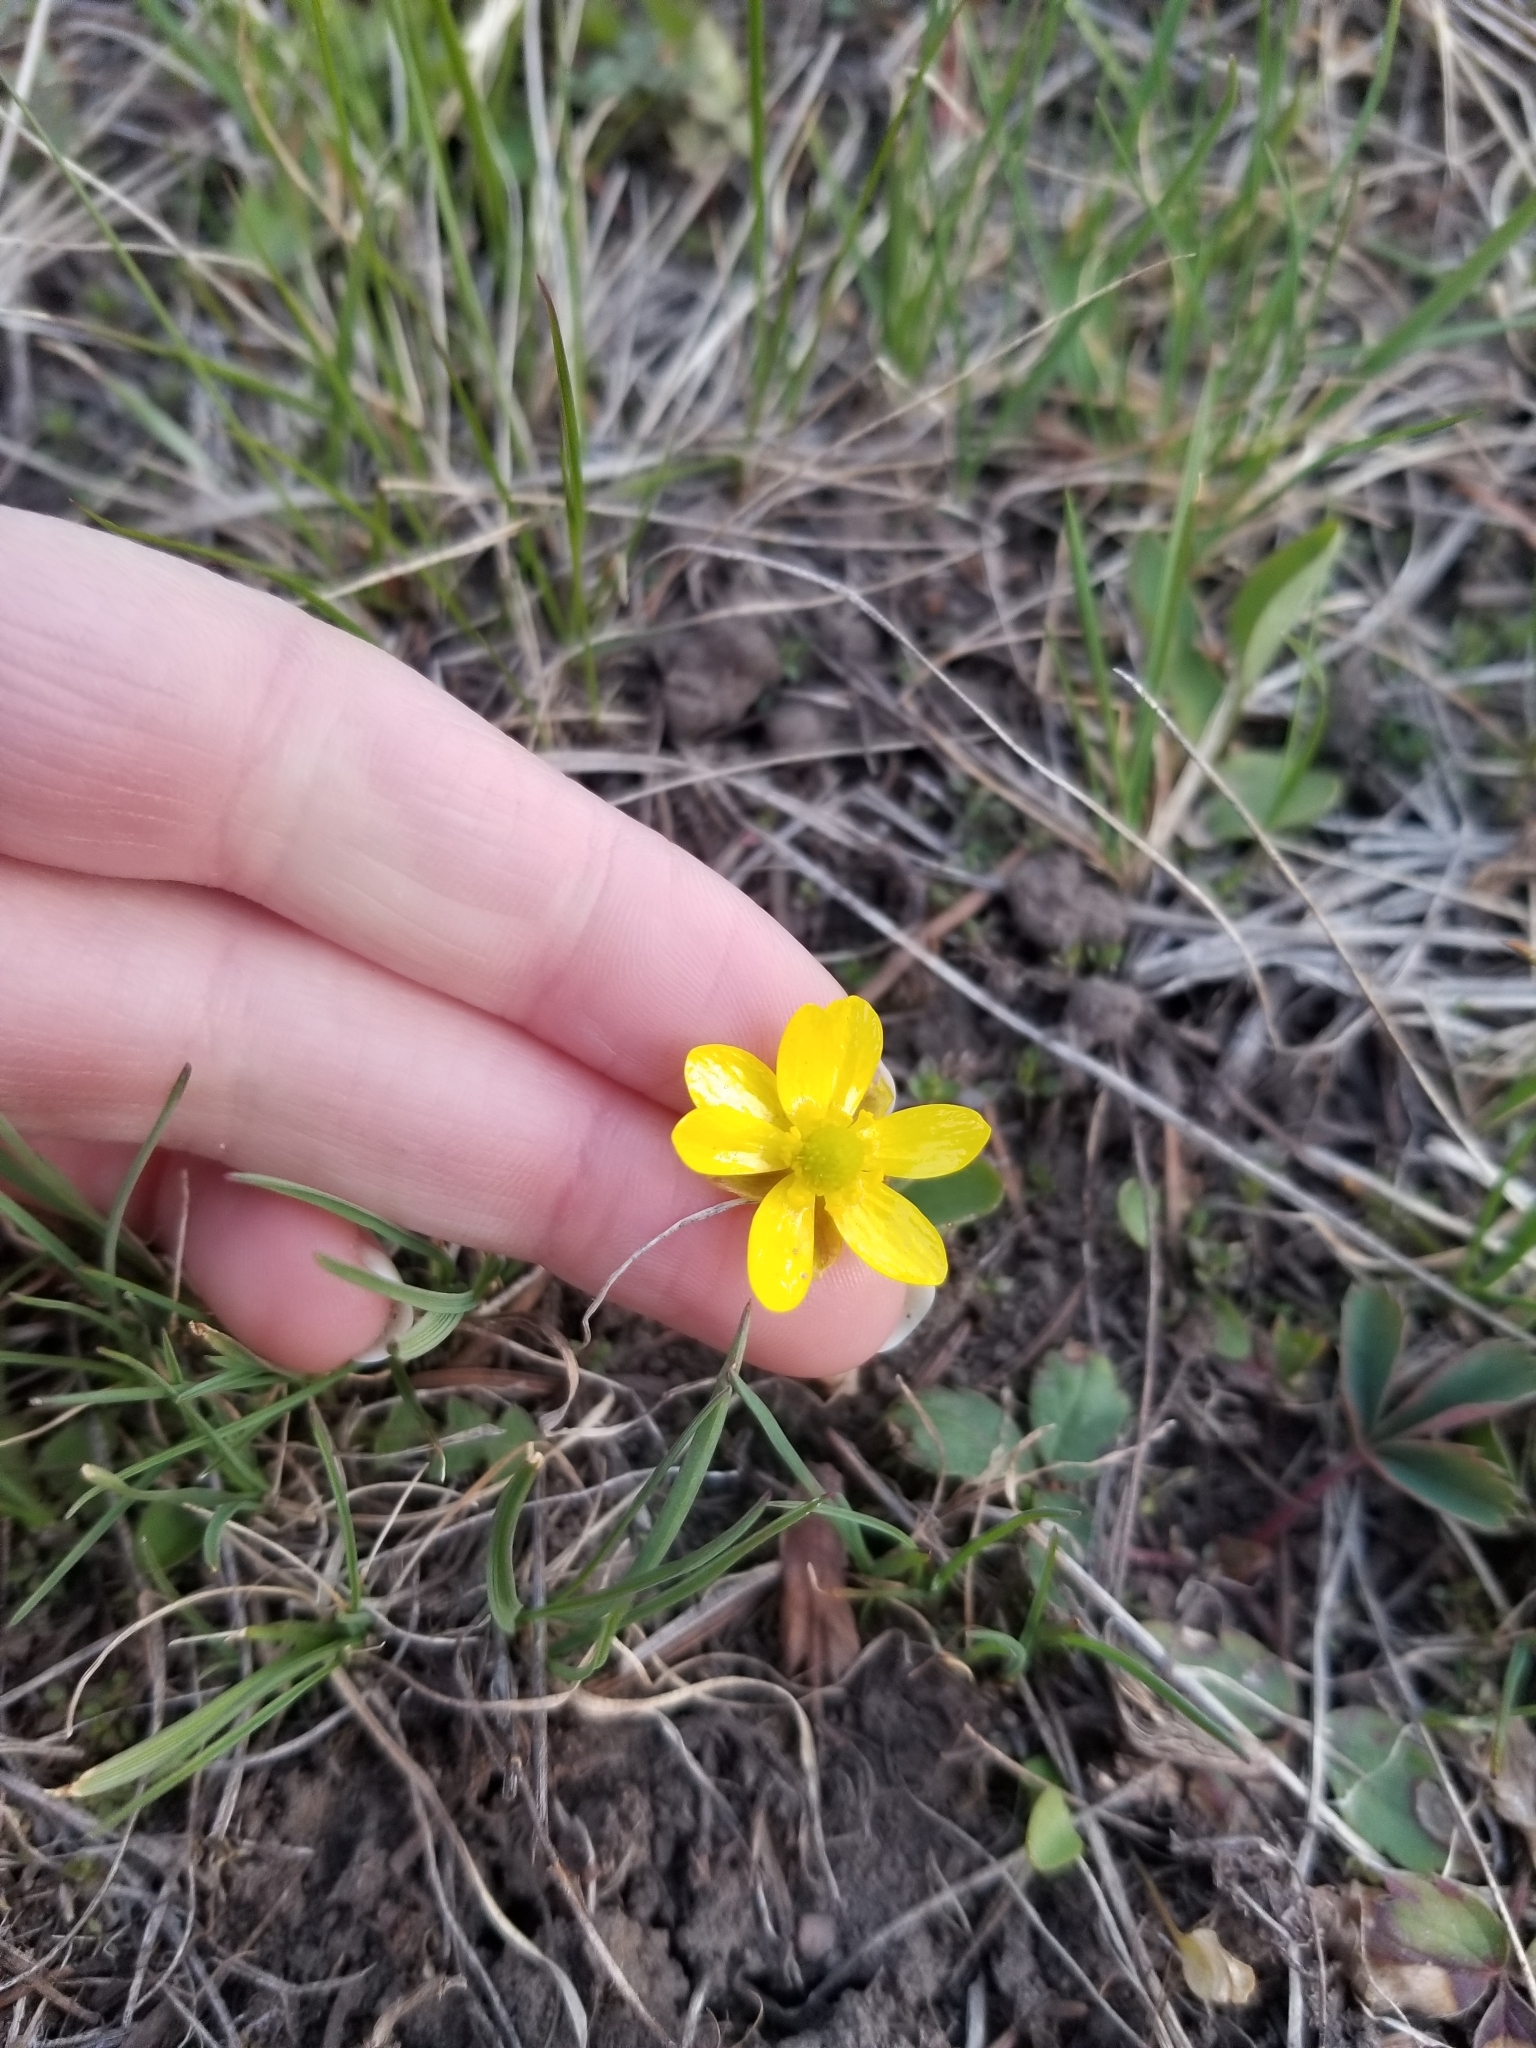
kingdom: Plantae
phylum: Tracheophyta
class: Magnoliopsida
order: Ranunculales
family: Ranunculaceae
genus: Ranunculus
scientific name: Ranunculus glaberrimus
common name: Sagebrush buttercup
